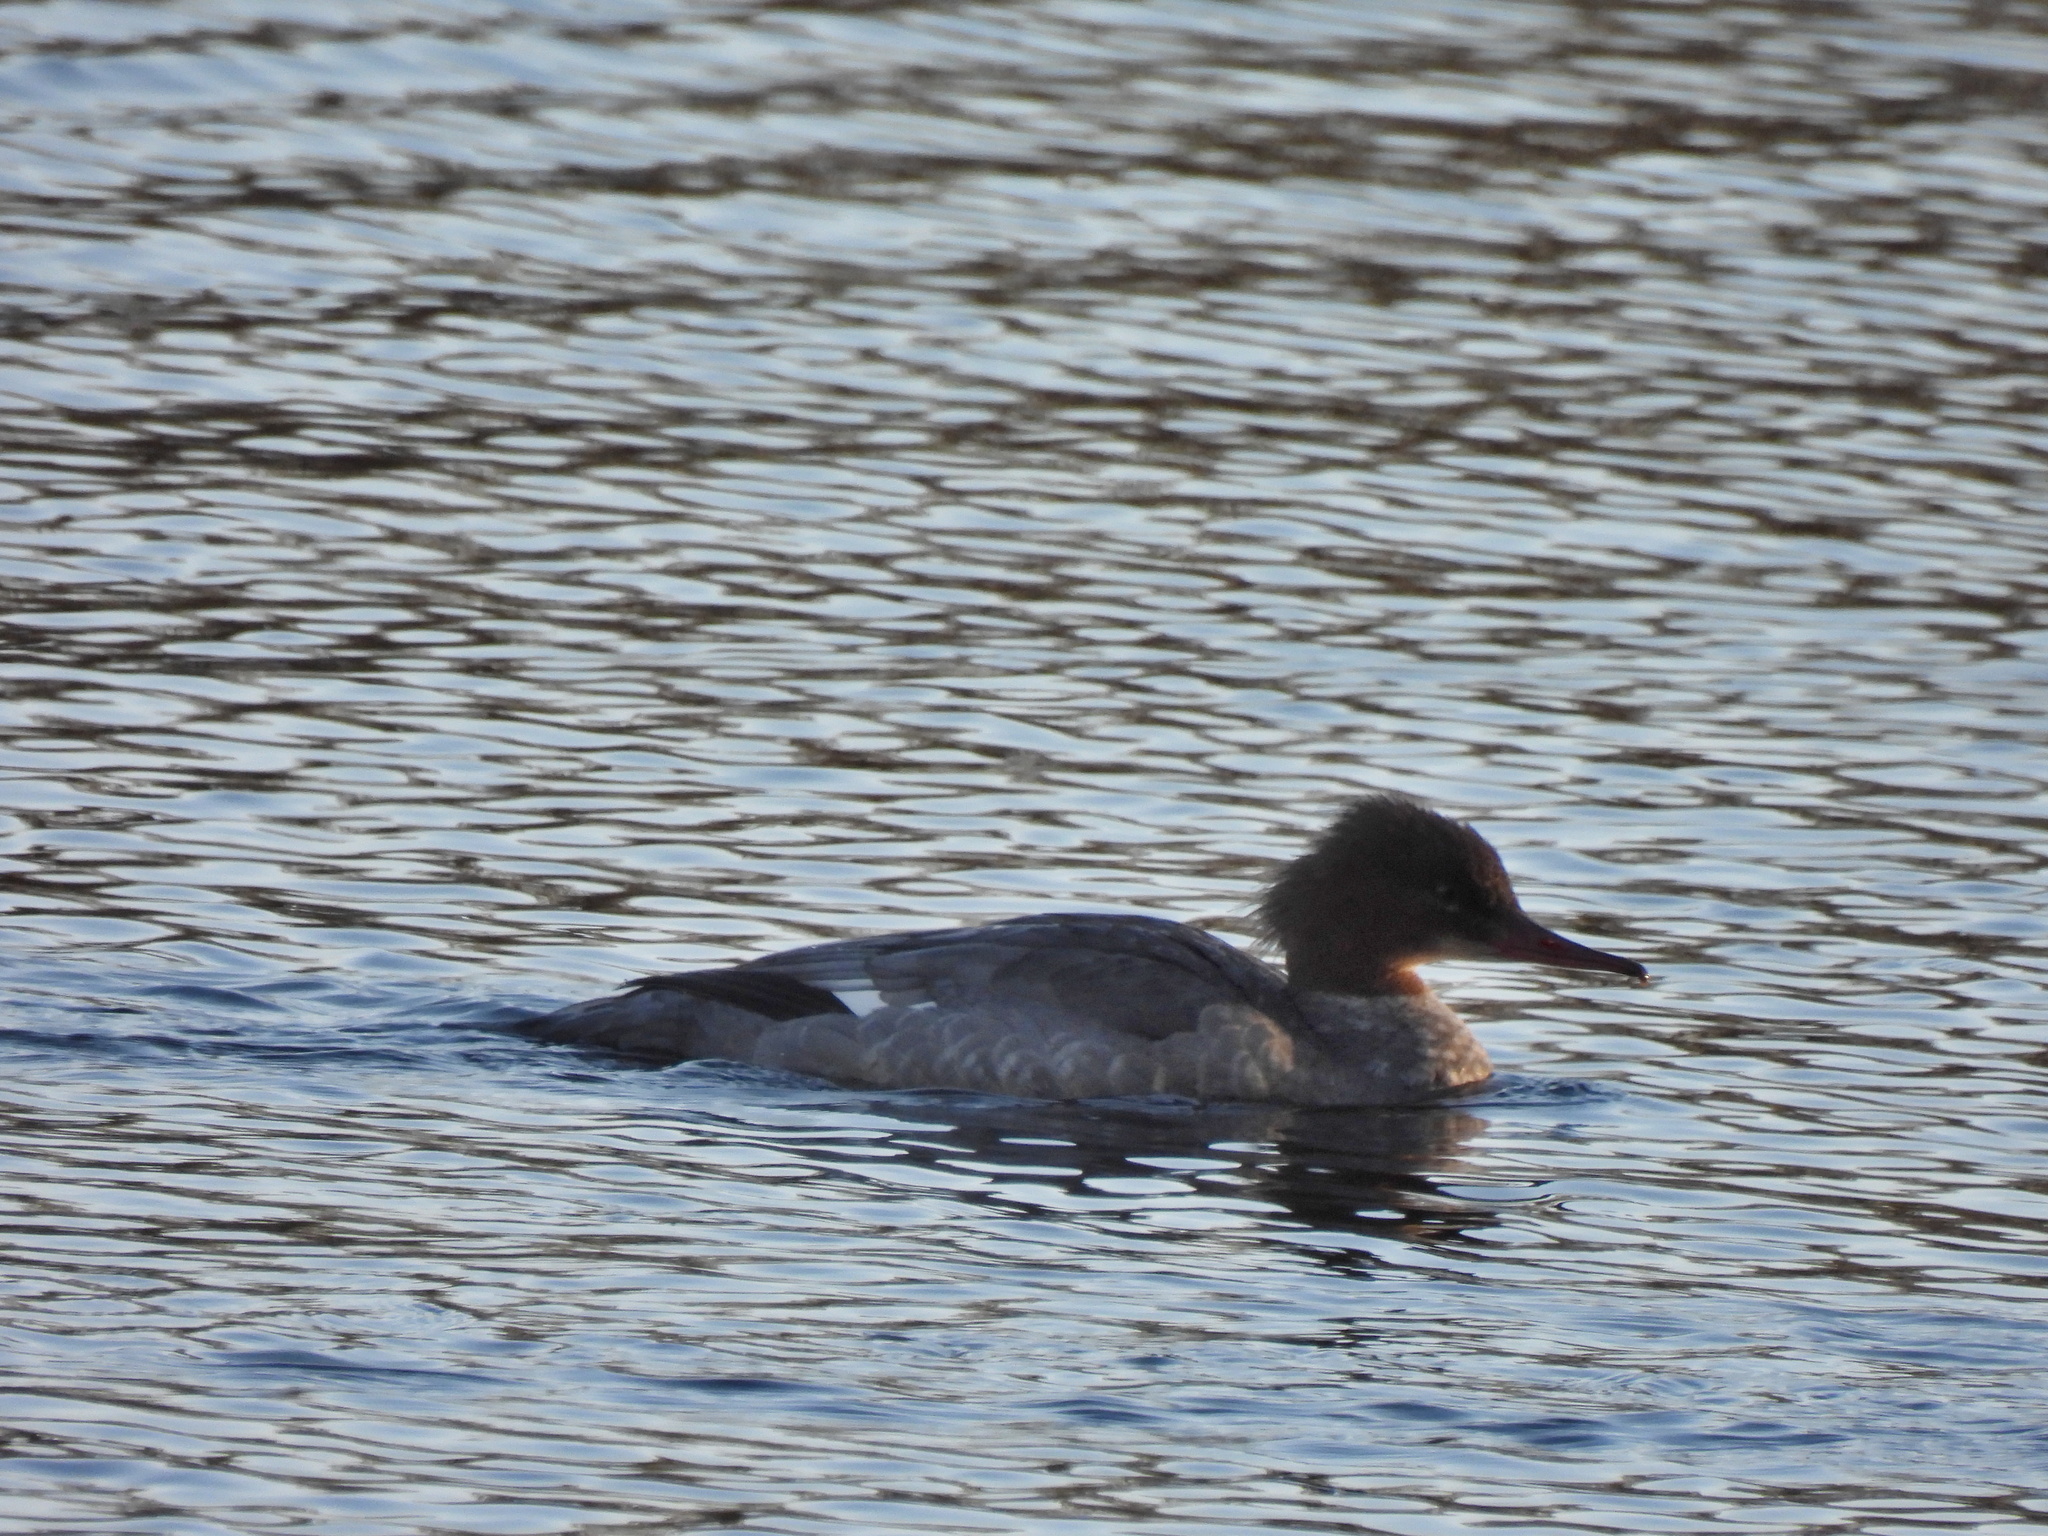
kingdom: Animalia
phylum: Chordata
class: Aves
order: Anseriformes
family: Anatidae
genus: Mergus
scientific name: Mergus merganser
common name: Common merganser
